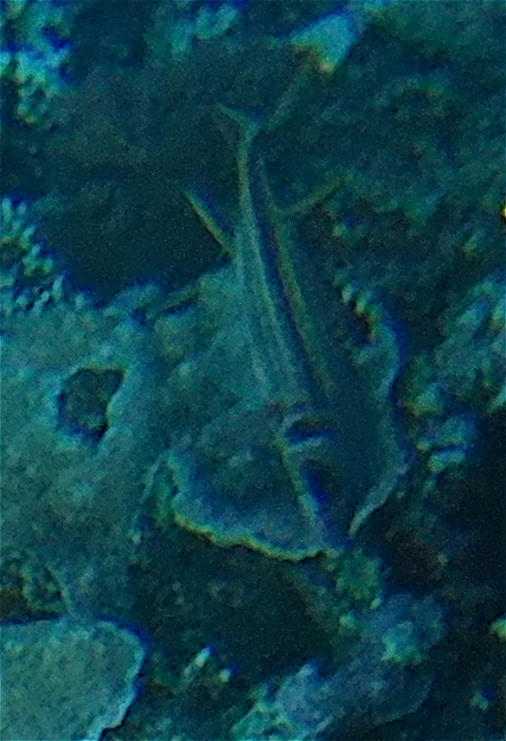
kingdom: Animalia
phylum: Chordata
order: Beryciformes
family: Holocentridae
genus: Neoniphon
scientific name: Neoniphon sammara
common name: Sammara squirrelfish
